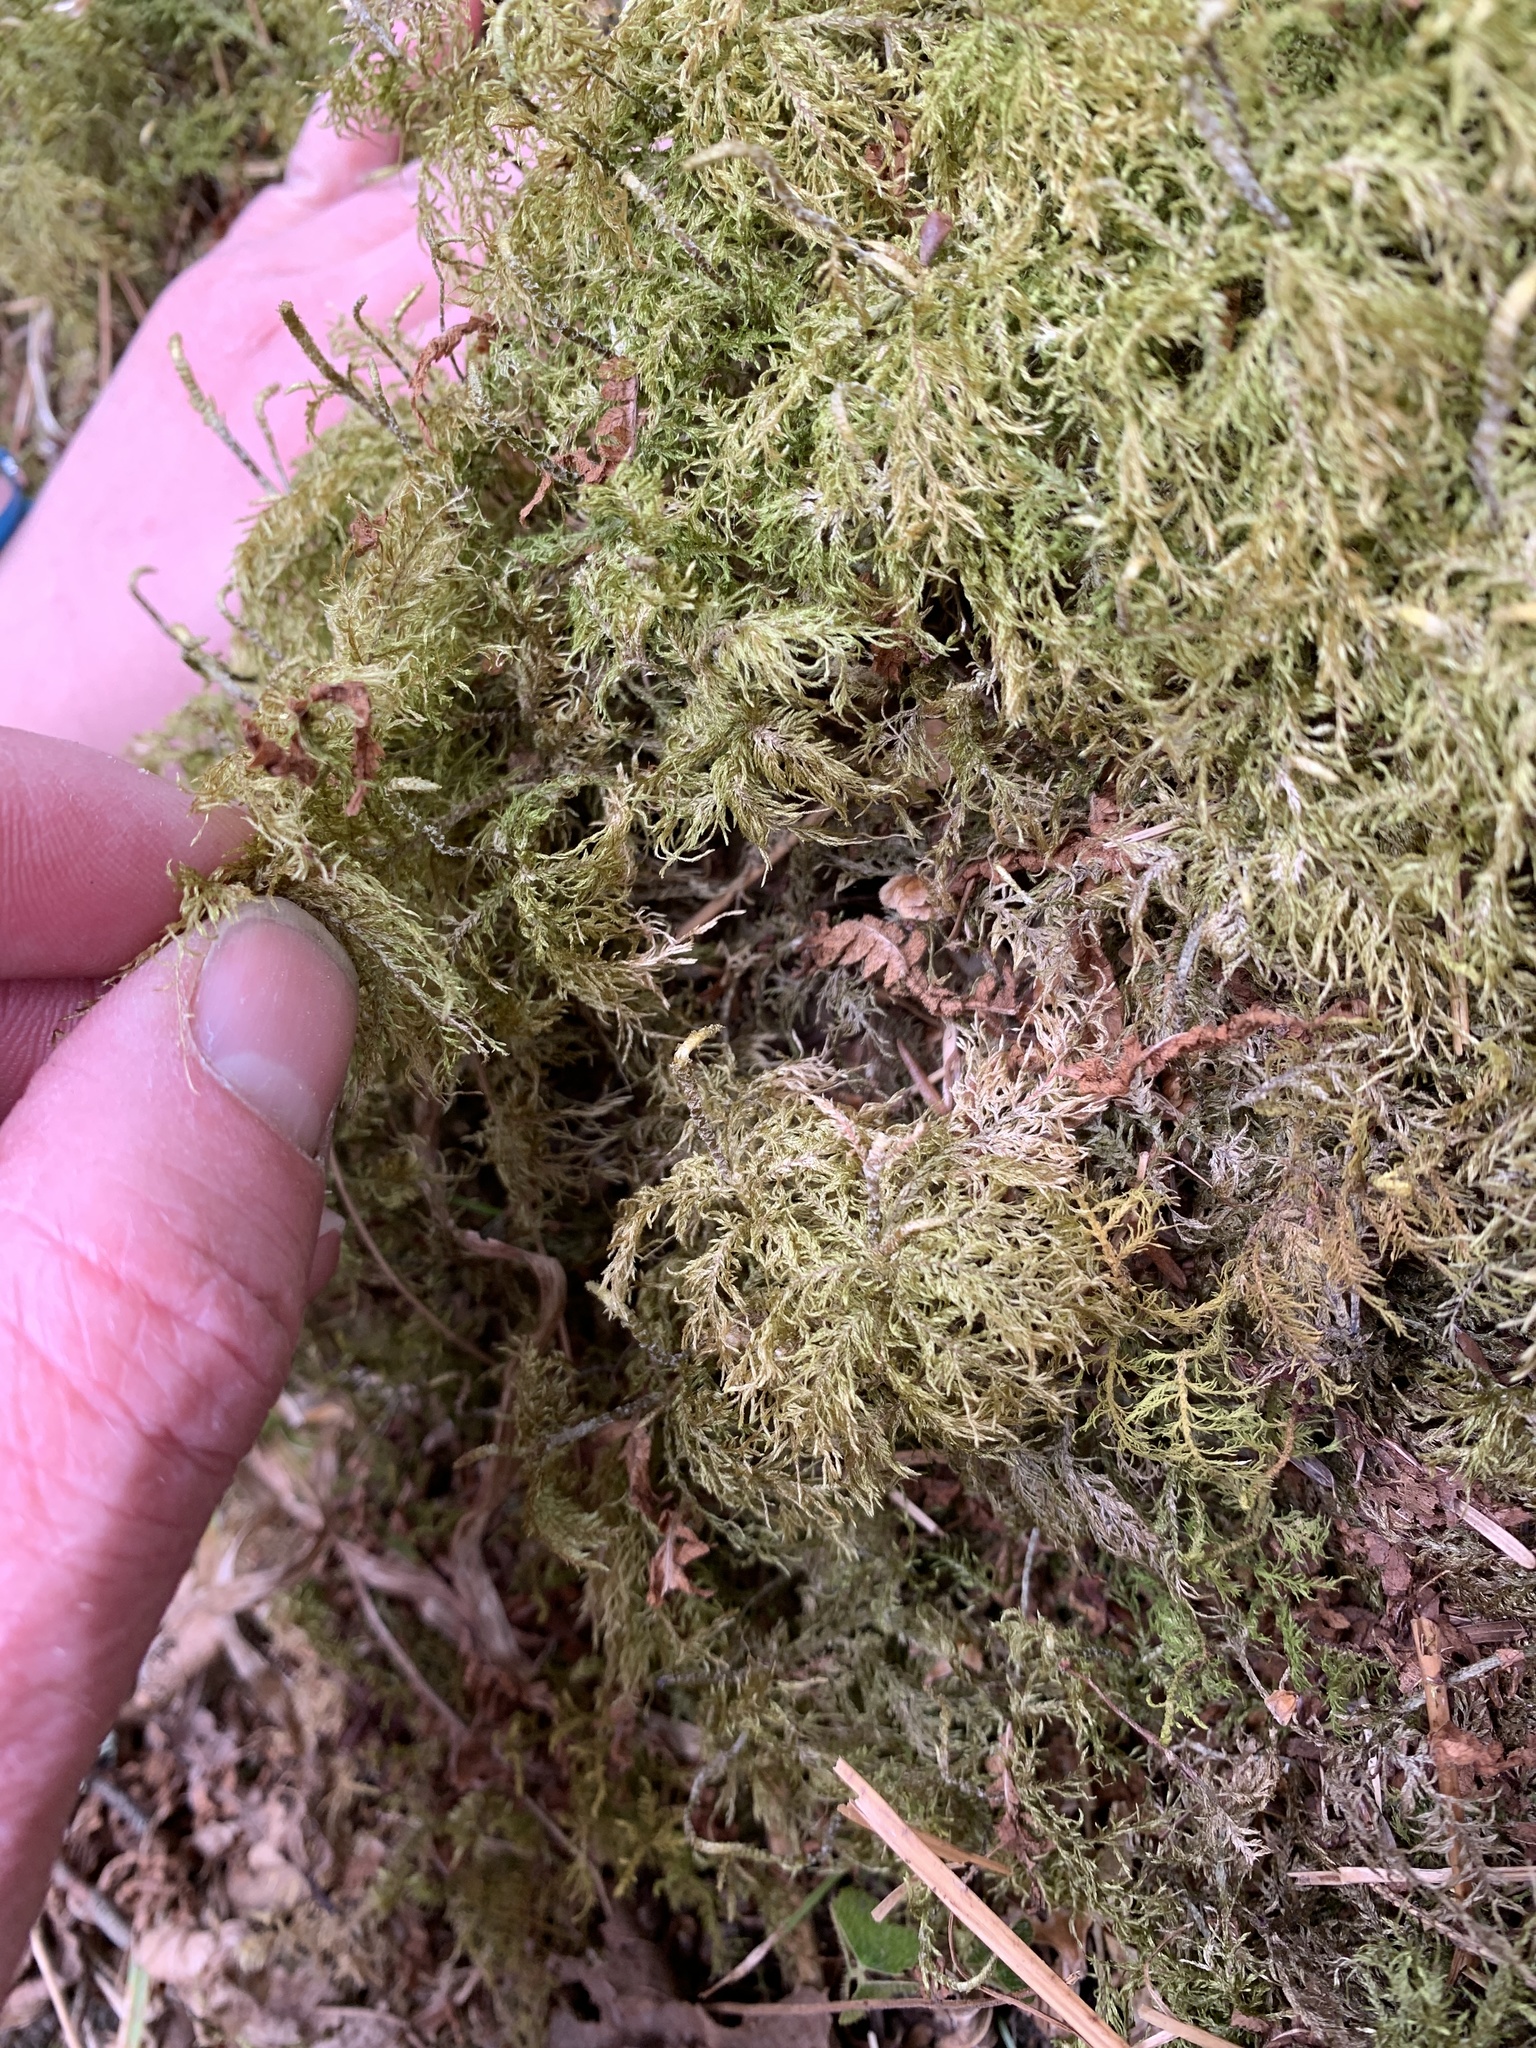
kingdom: Plantae
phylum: Bryophyta
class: Bryopsida
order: Hypnales
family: Hylocomiaceae
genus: Hylocomium
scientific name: Hylocomium splendens
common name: Stairstep moss
